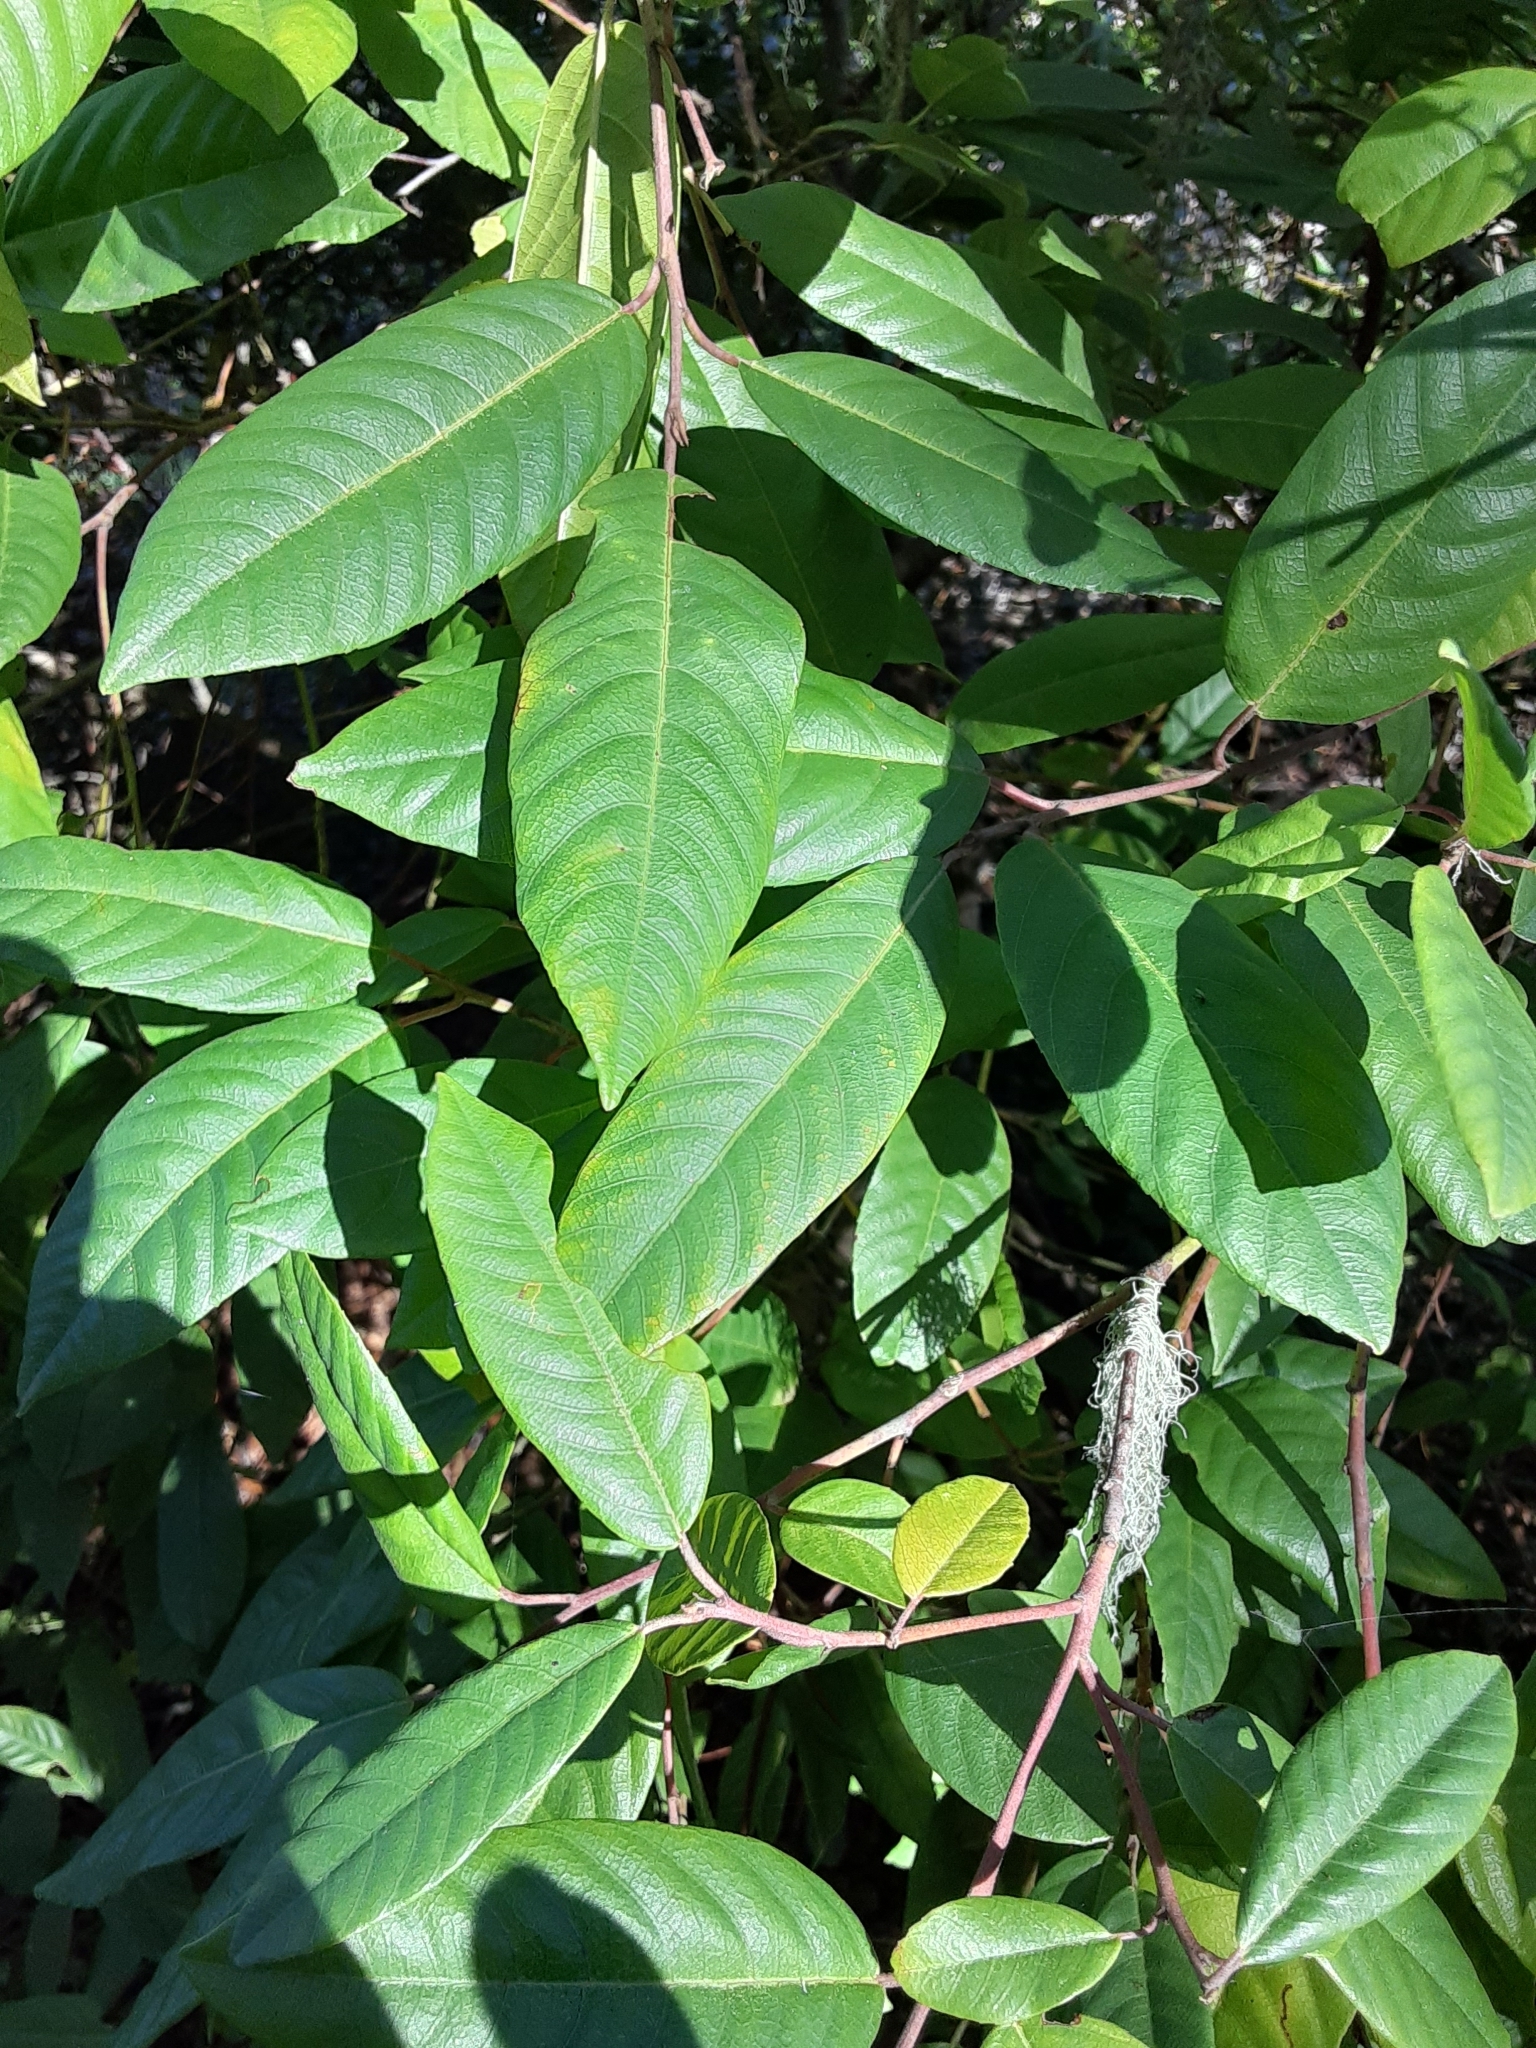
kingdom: Plantae
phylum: Tracheophyta
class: Magnoliopsida
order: Rosales
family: Rhamnaceae
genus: Frangula
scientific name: Frangula californica
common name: California buckthorn
